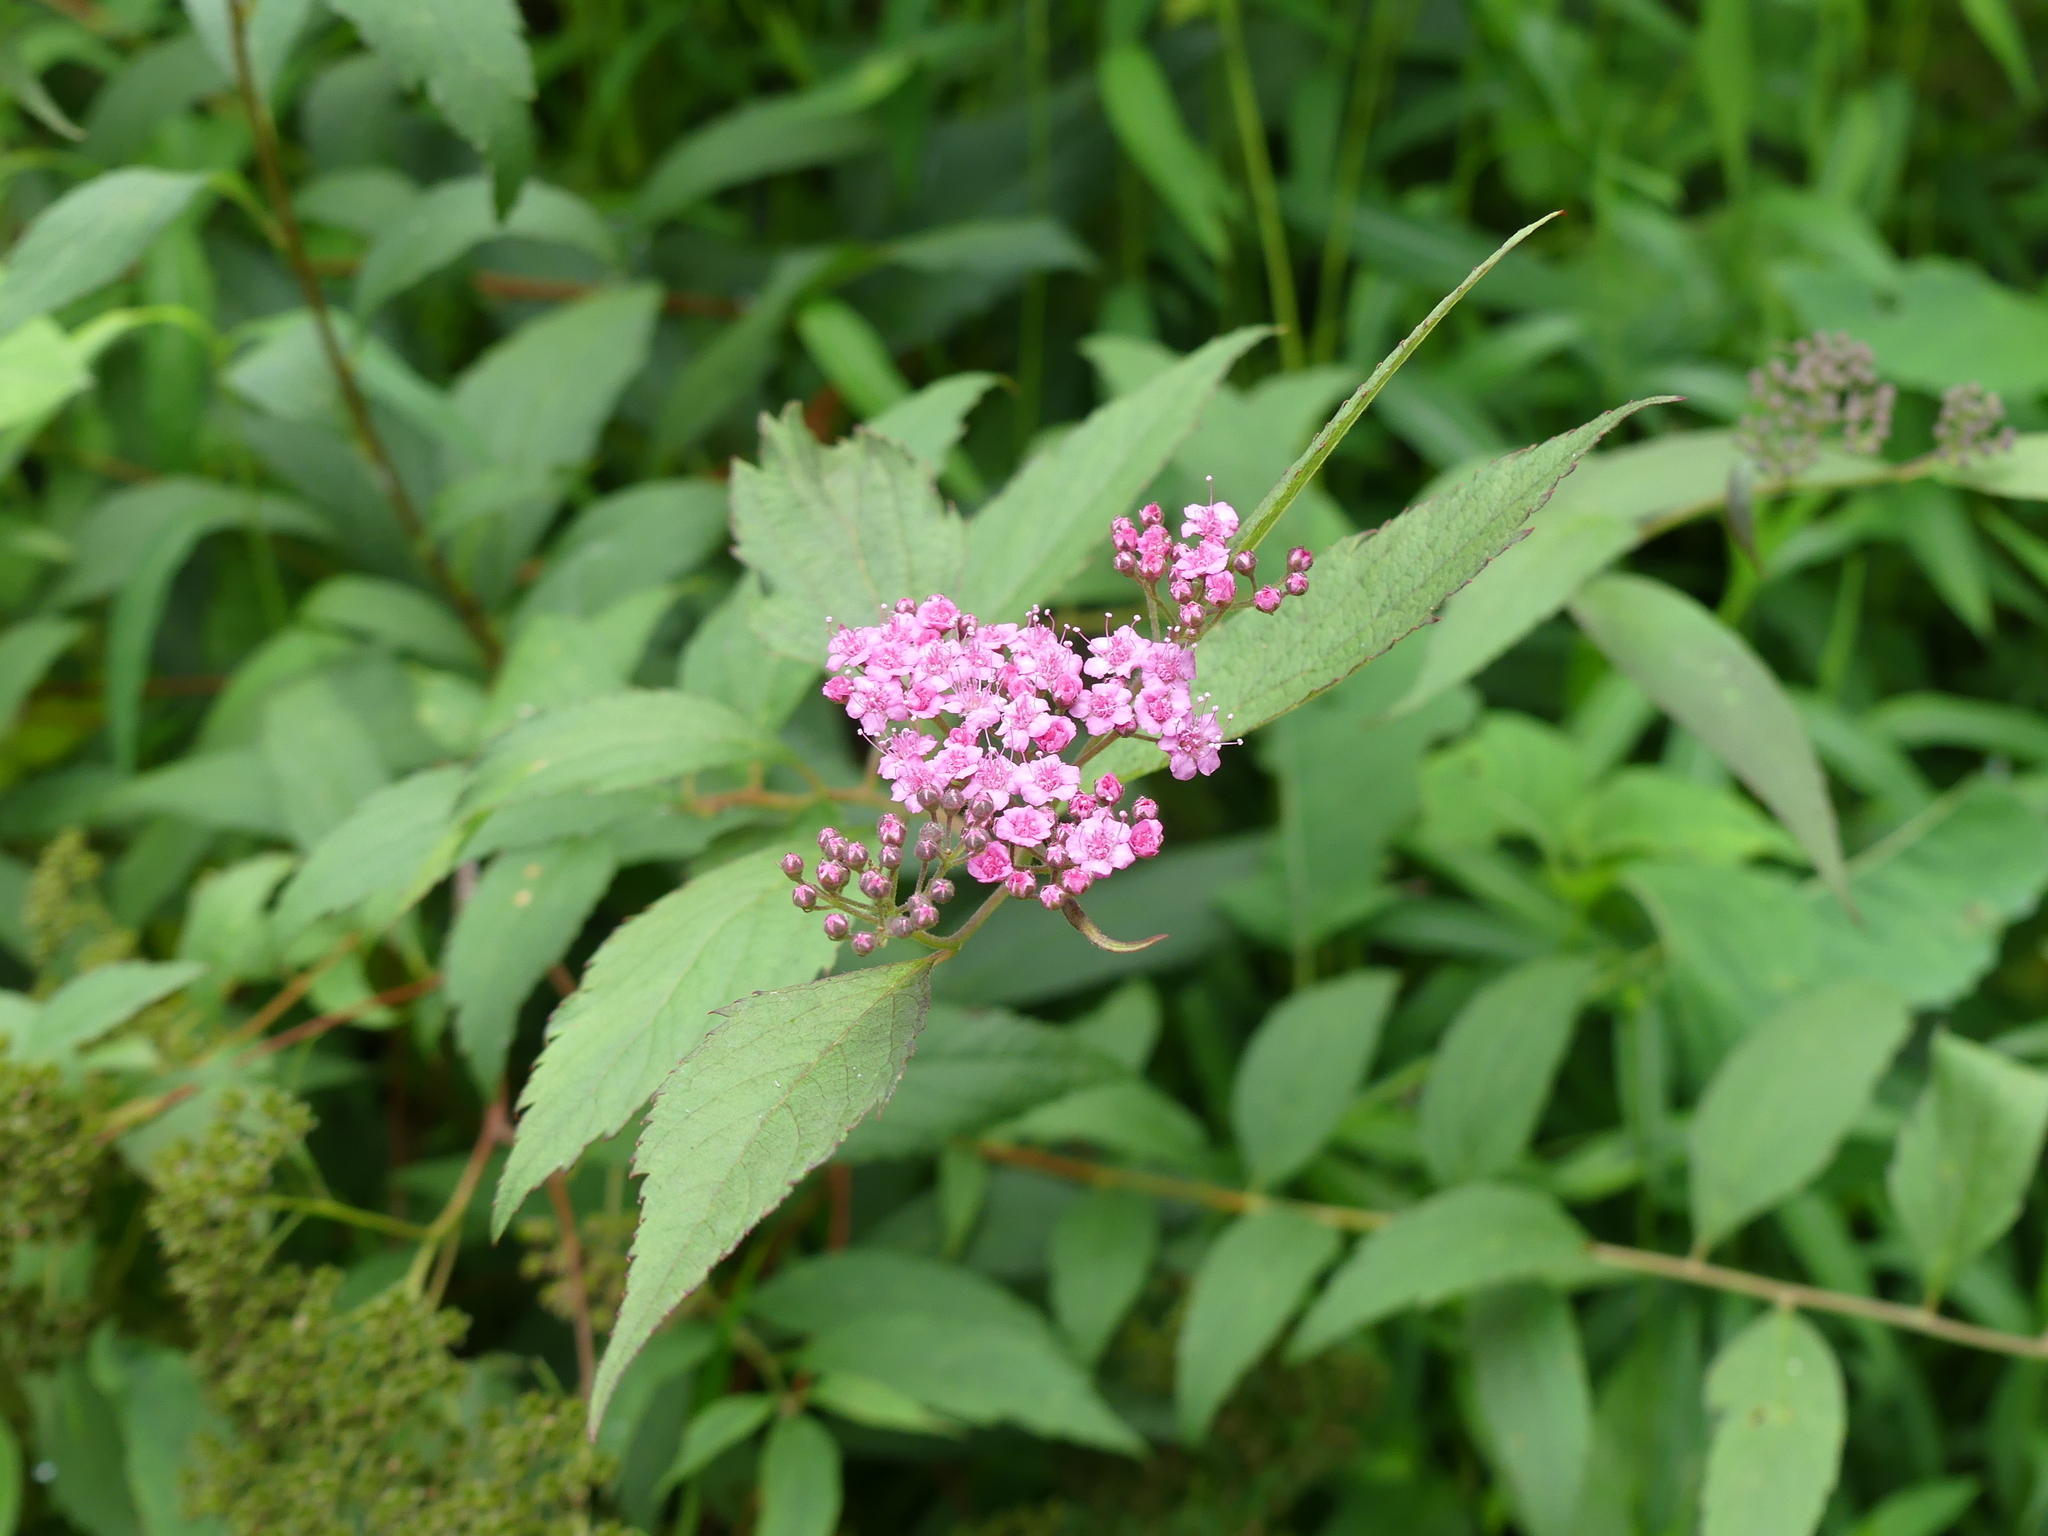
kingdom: Plantae
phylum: Tracheophyta
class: Magnoliopsida
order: Rosales
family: Rosaceae
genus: Spiraea
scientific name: Spiraea japonica
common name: Japanese spiraea
